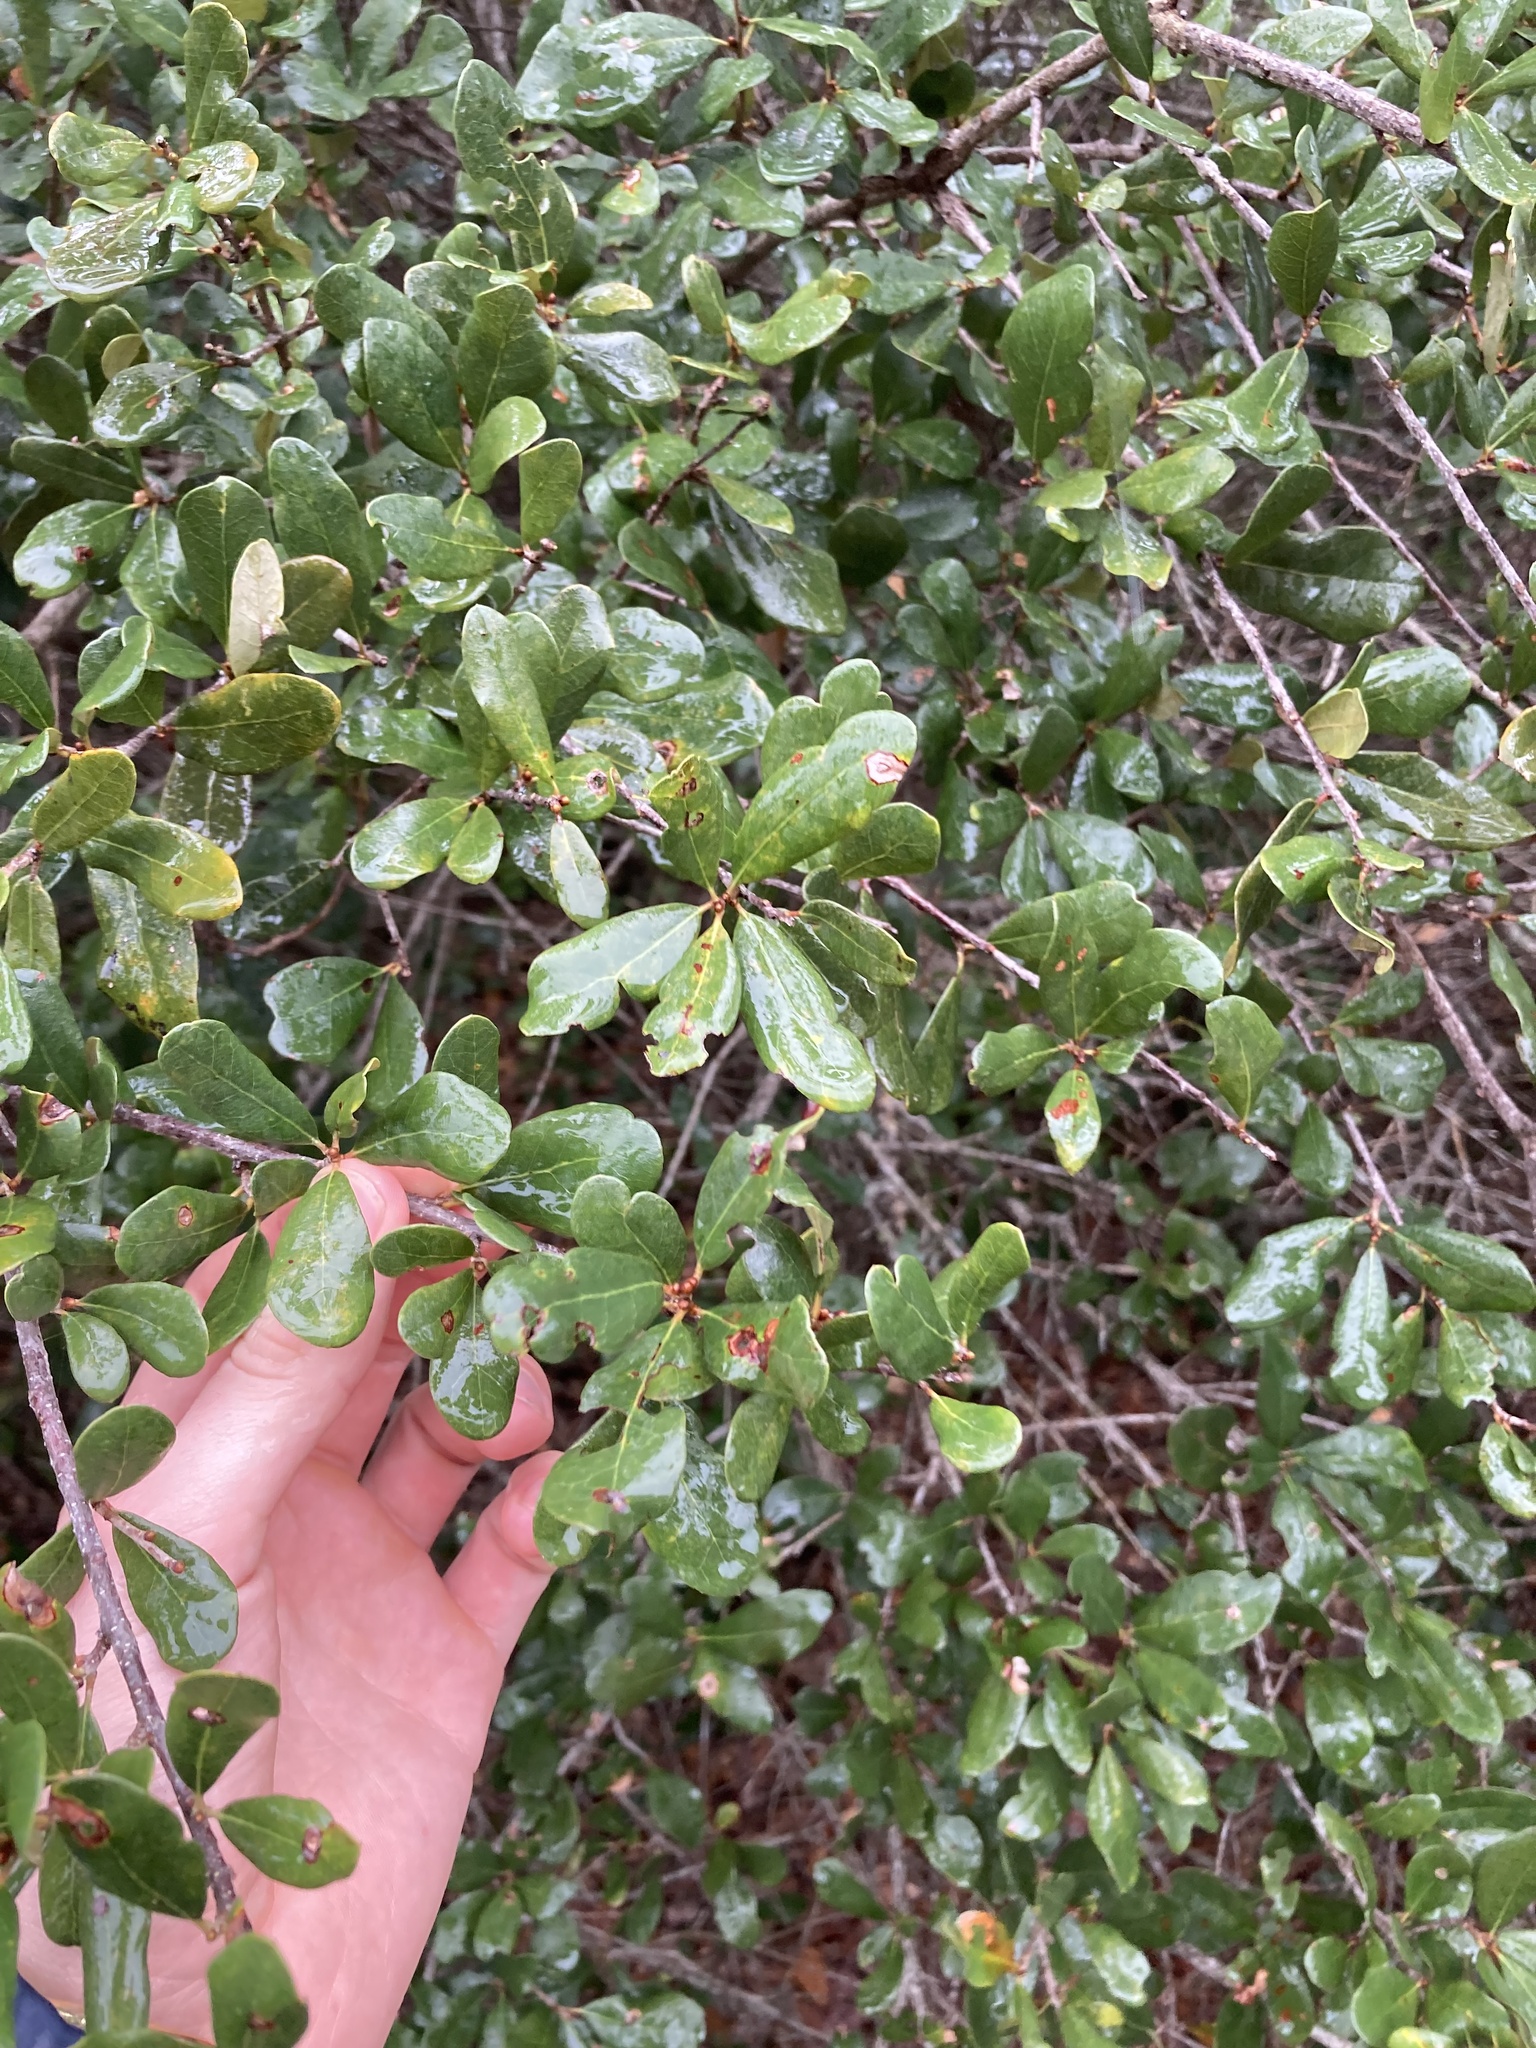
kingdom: Plantae
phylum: Tracheophyta
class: Magnoliopsida
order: Fagales
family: Fagaceae
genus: Quercus
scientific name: Quercus virginiana
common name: Southern live oak
